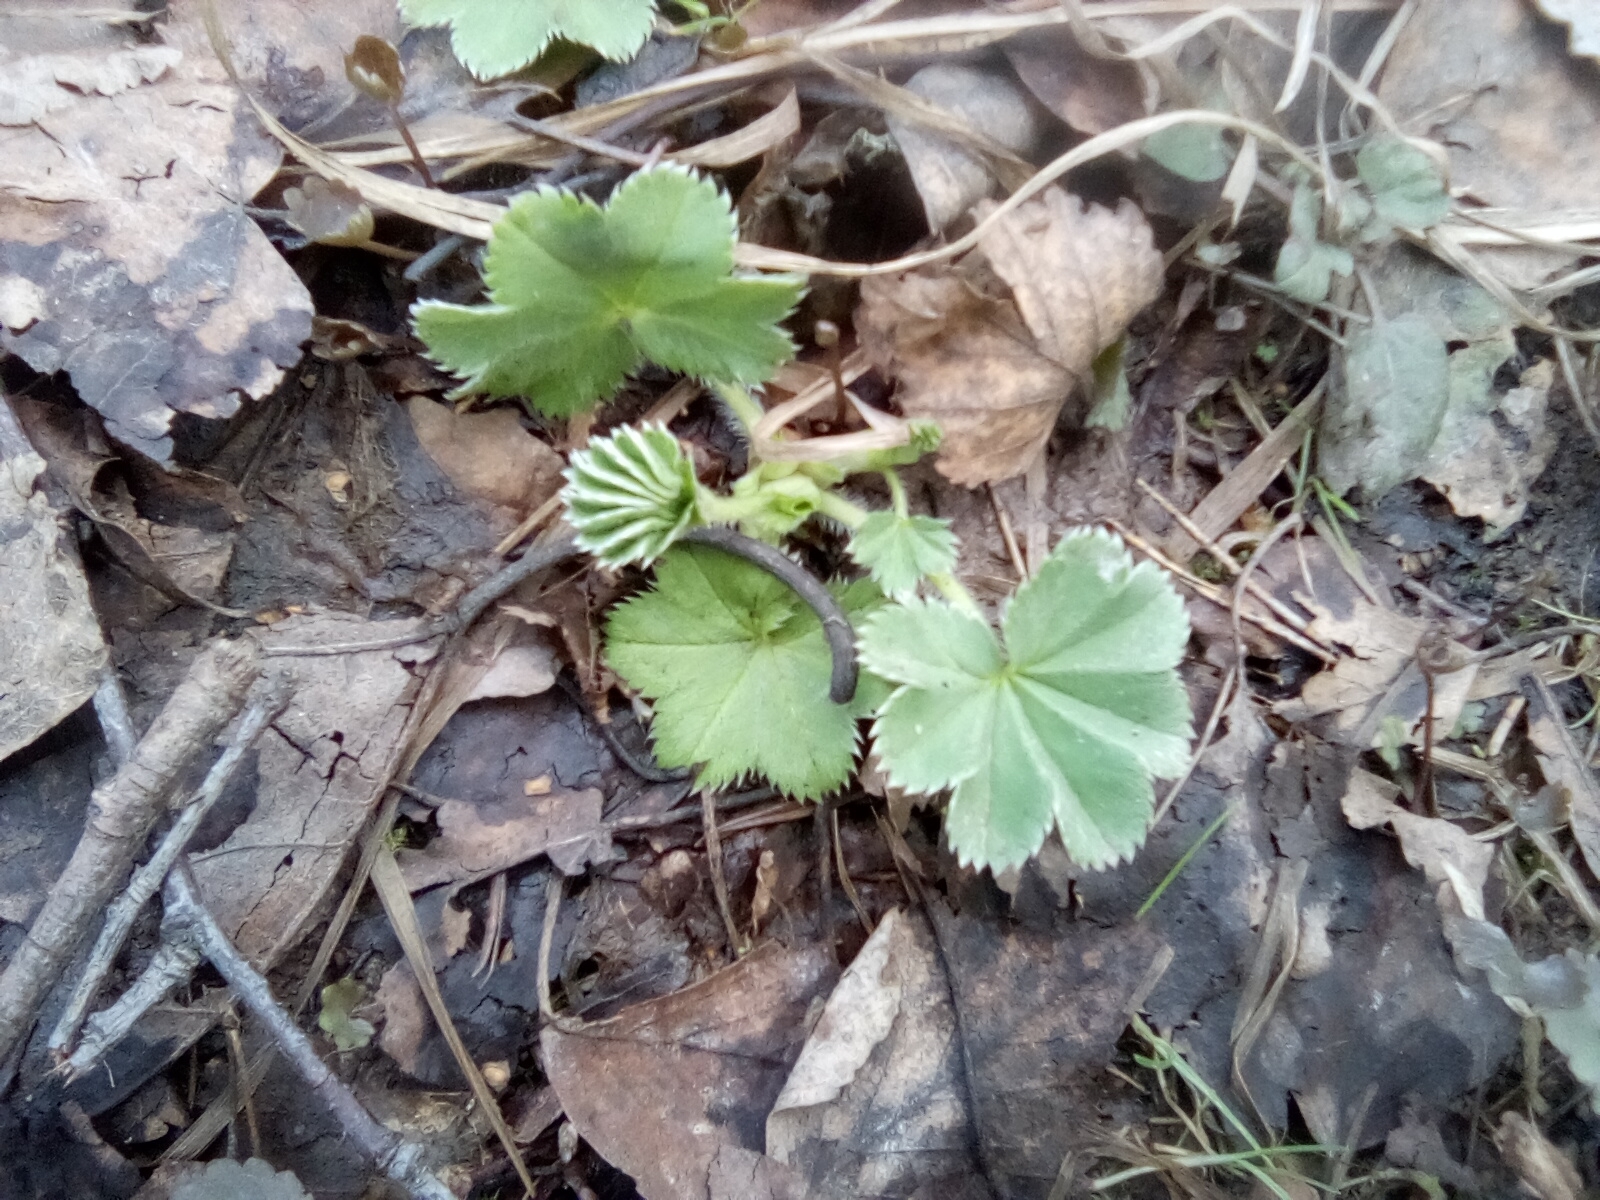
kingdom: Plantae
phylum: Tracheophyta
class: Magnoliopsida
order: Rosales
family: Rosaceae
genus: Alchemilla
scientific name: Alchemilla
